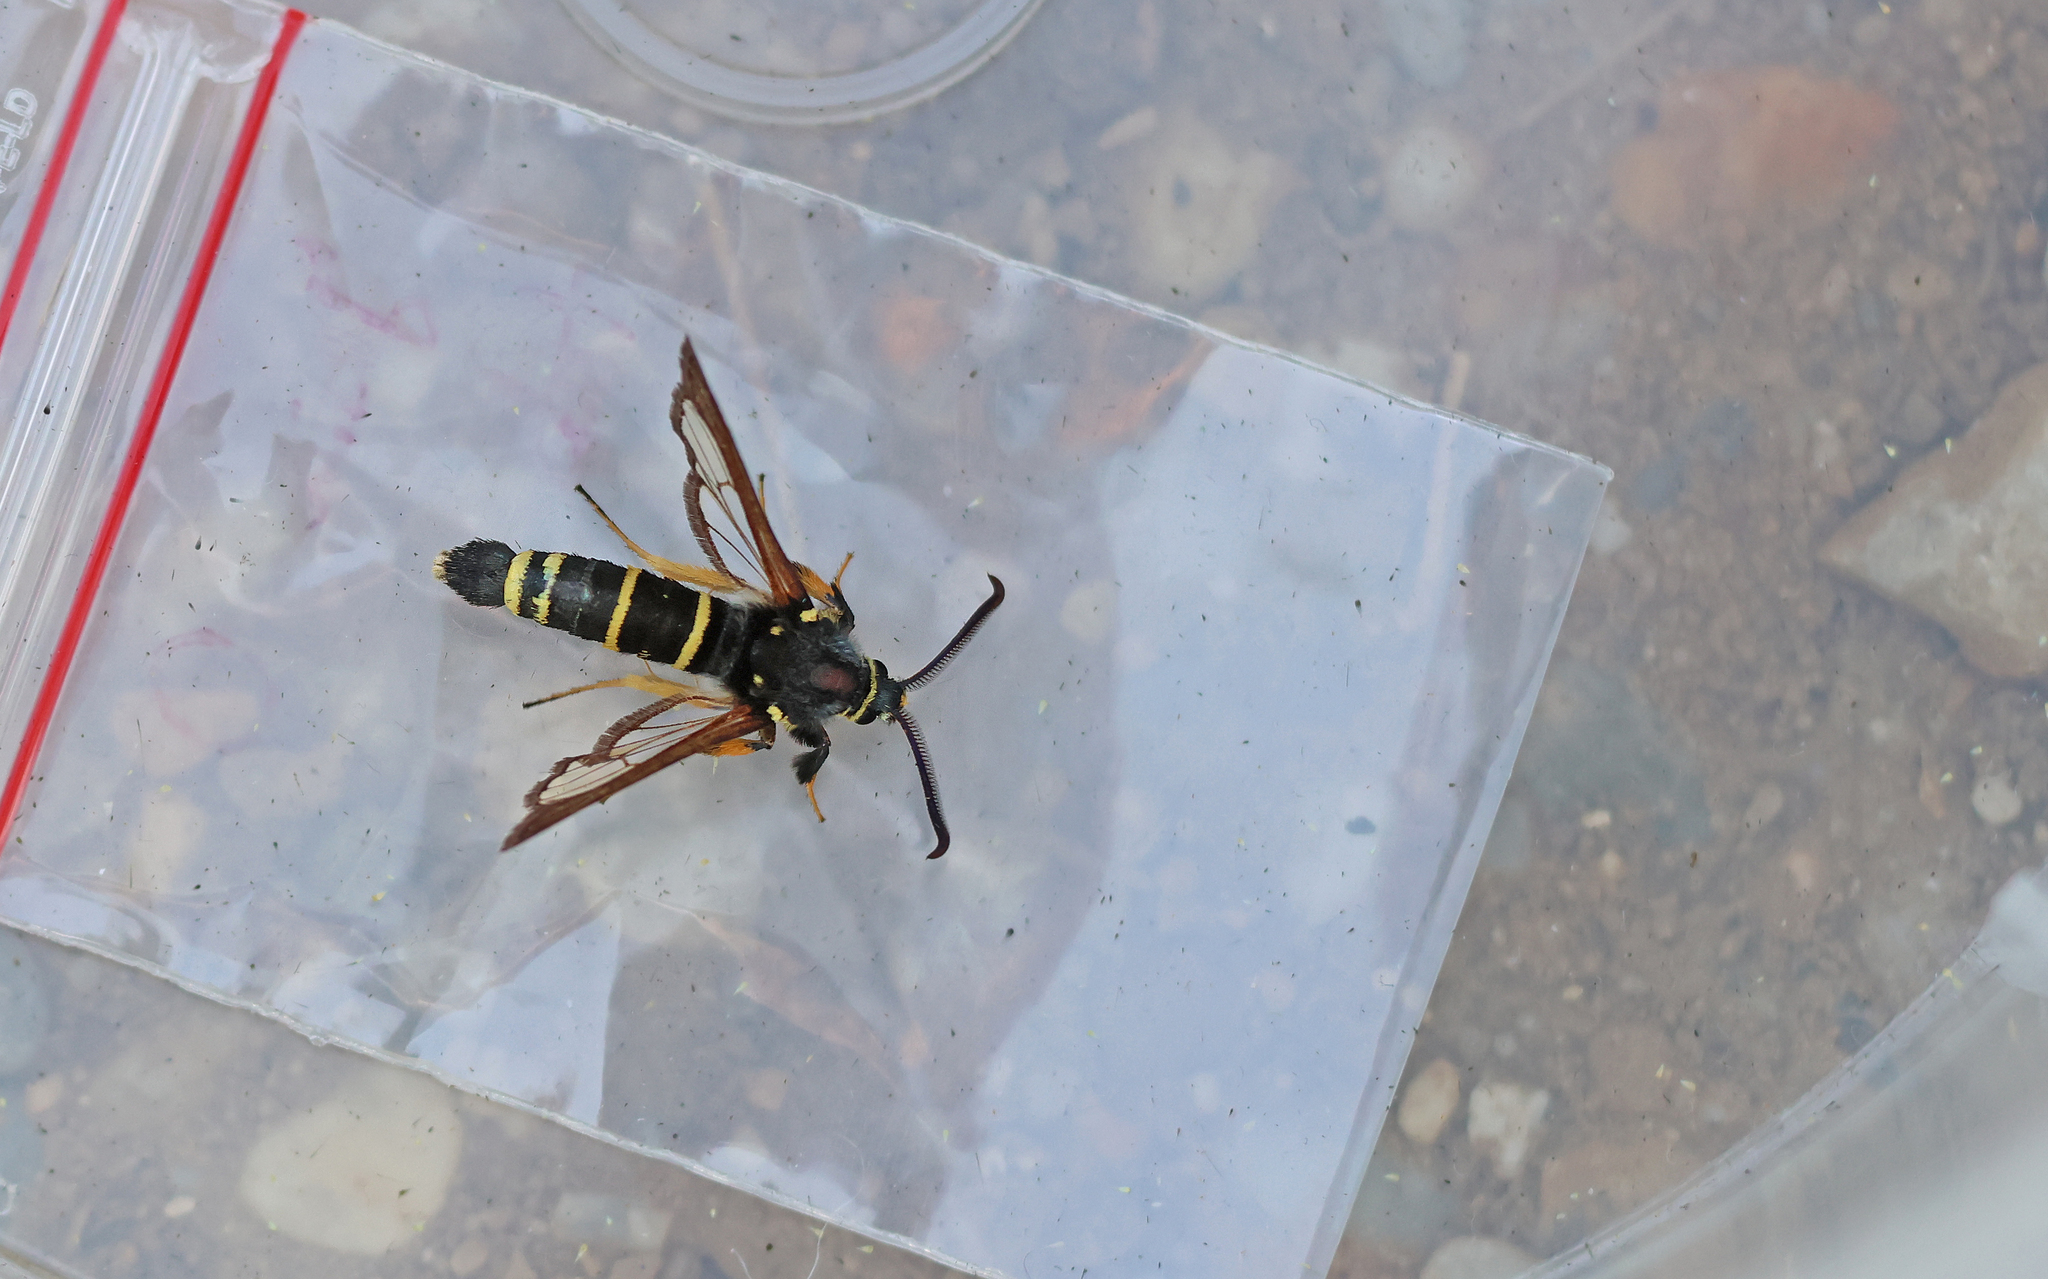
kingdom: Animalia
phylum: Arthropoda
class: Insecta
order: Lepidoptera
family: Sesiidae
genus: Paranthrene
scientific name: Paranthrene tabaniformis
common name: Dusky clearwing
